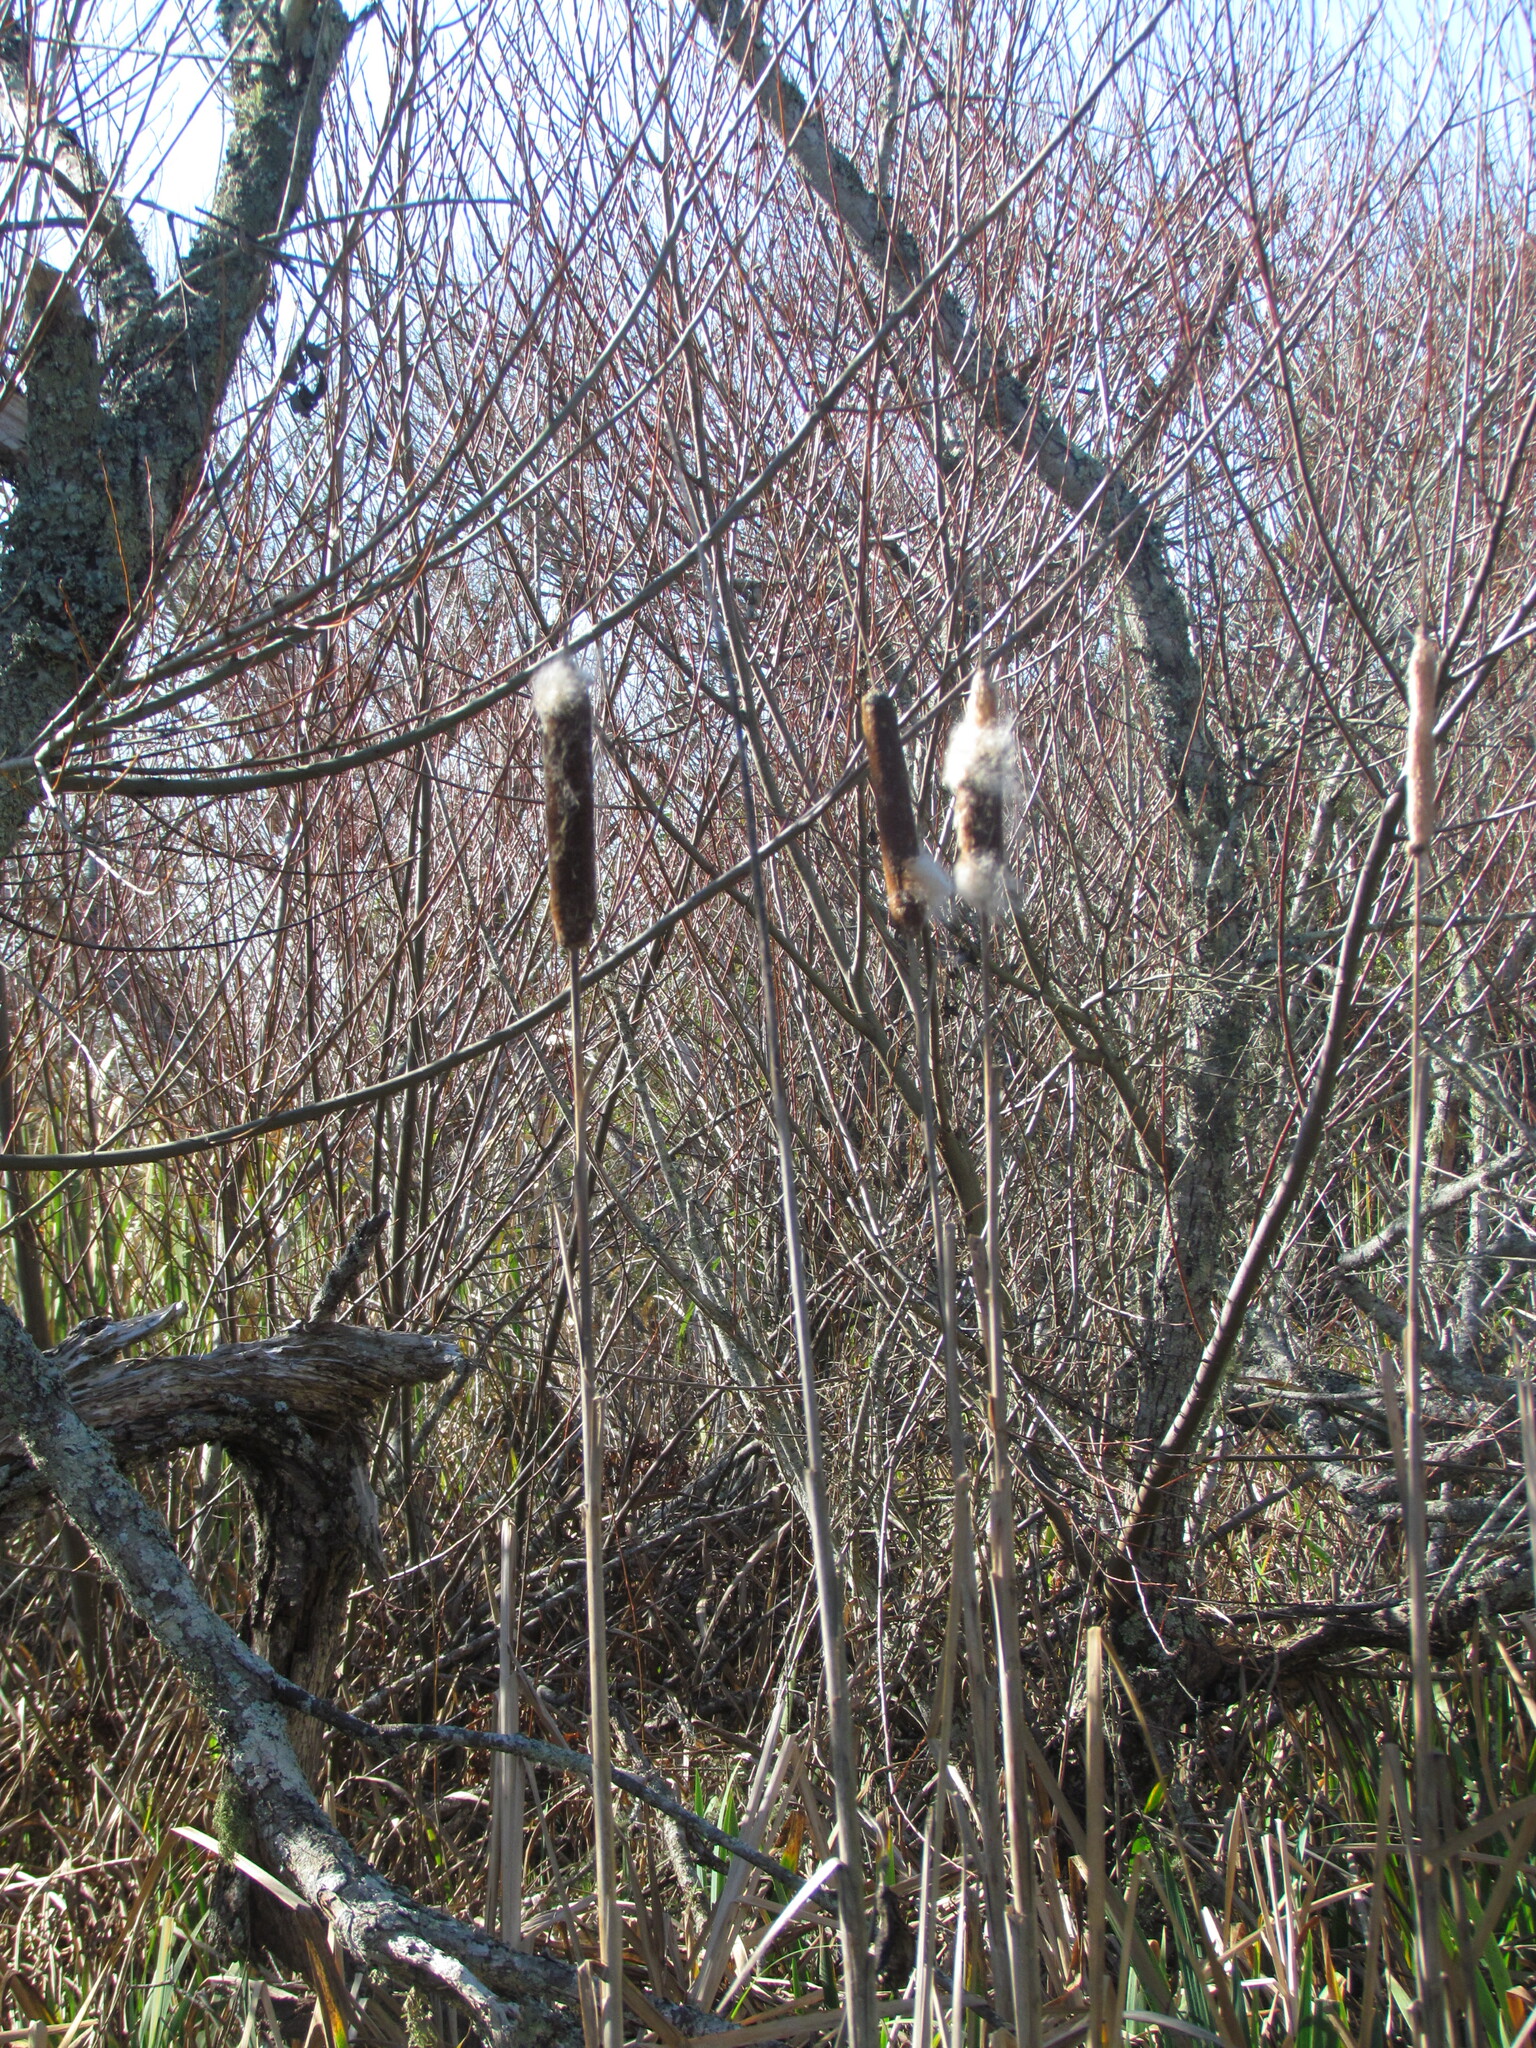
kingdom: Plantae
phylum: Tracheophyta
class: Liliopsida
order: Poales
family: Typhaceae
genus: Typha
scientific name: Typha latifolia
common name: Broadleaf cattail
